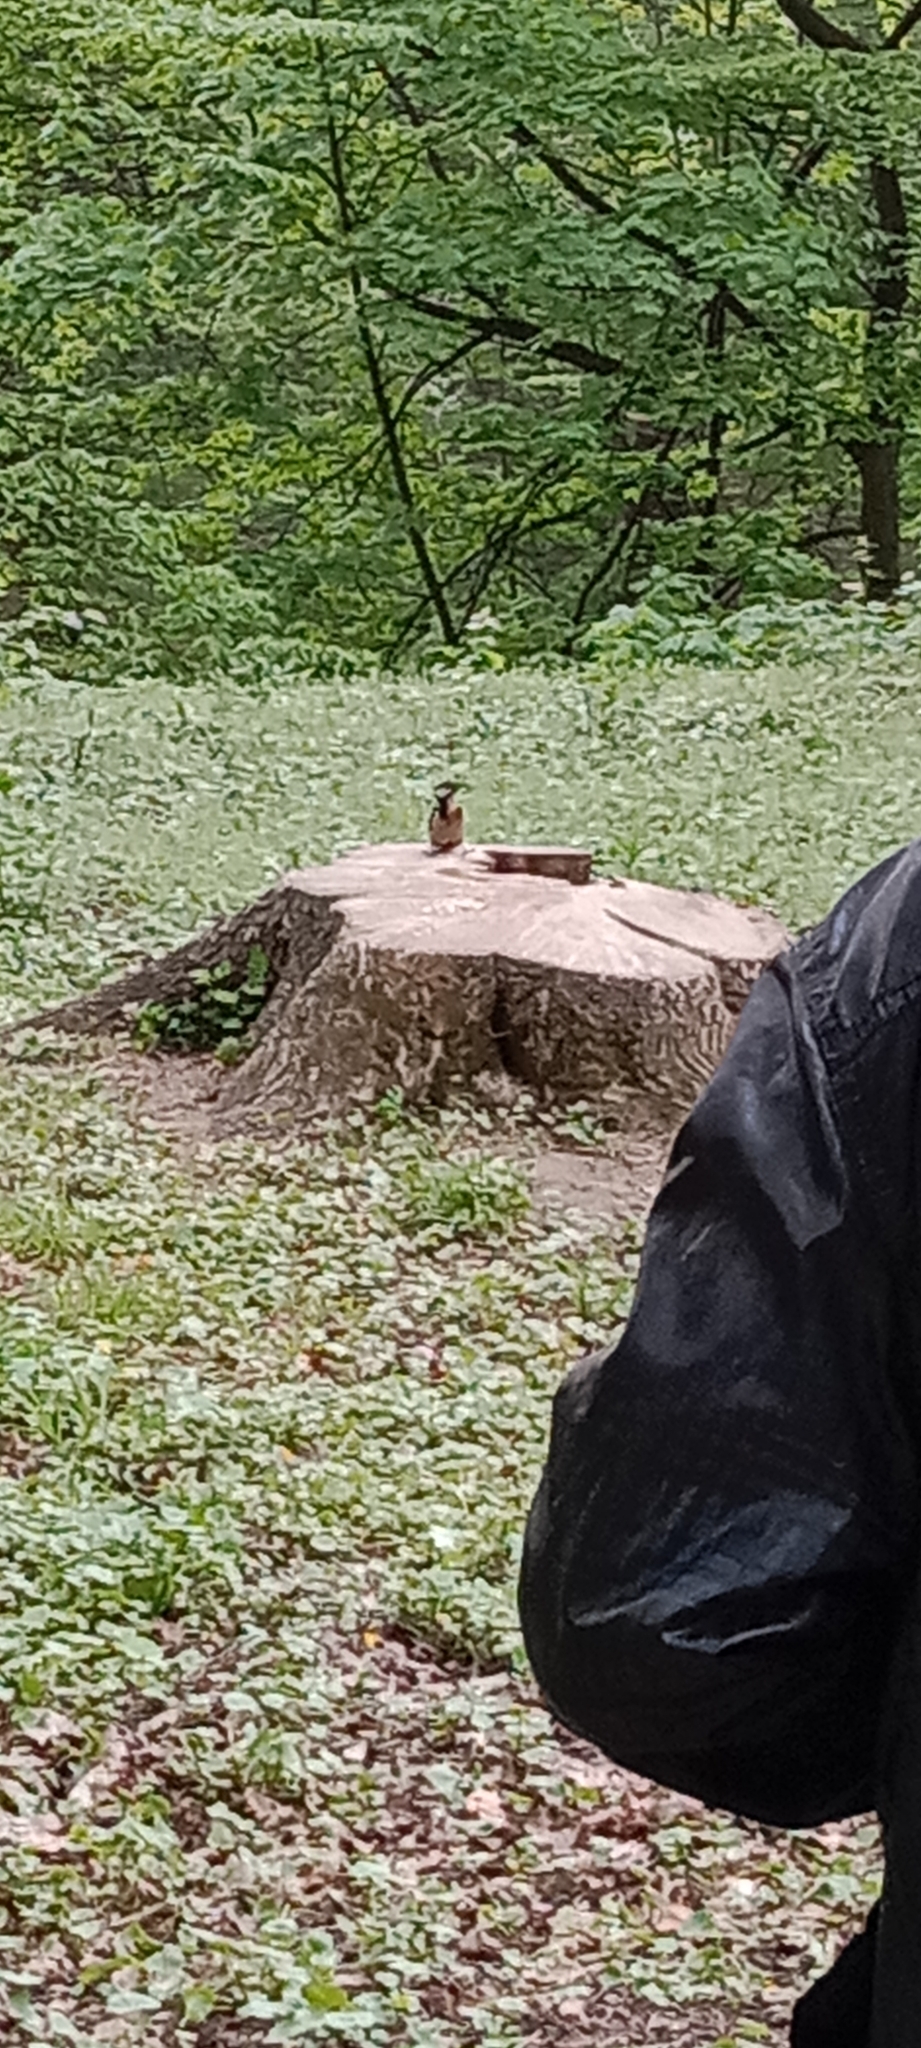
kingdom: Animalia
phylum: Chordata
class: Aves
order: Piciformes
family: Picidae
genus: Dendrocopos
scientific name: Dendrocopos major
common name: Great spotted woodpecker
